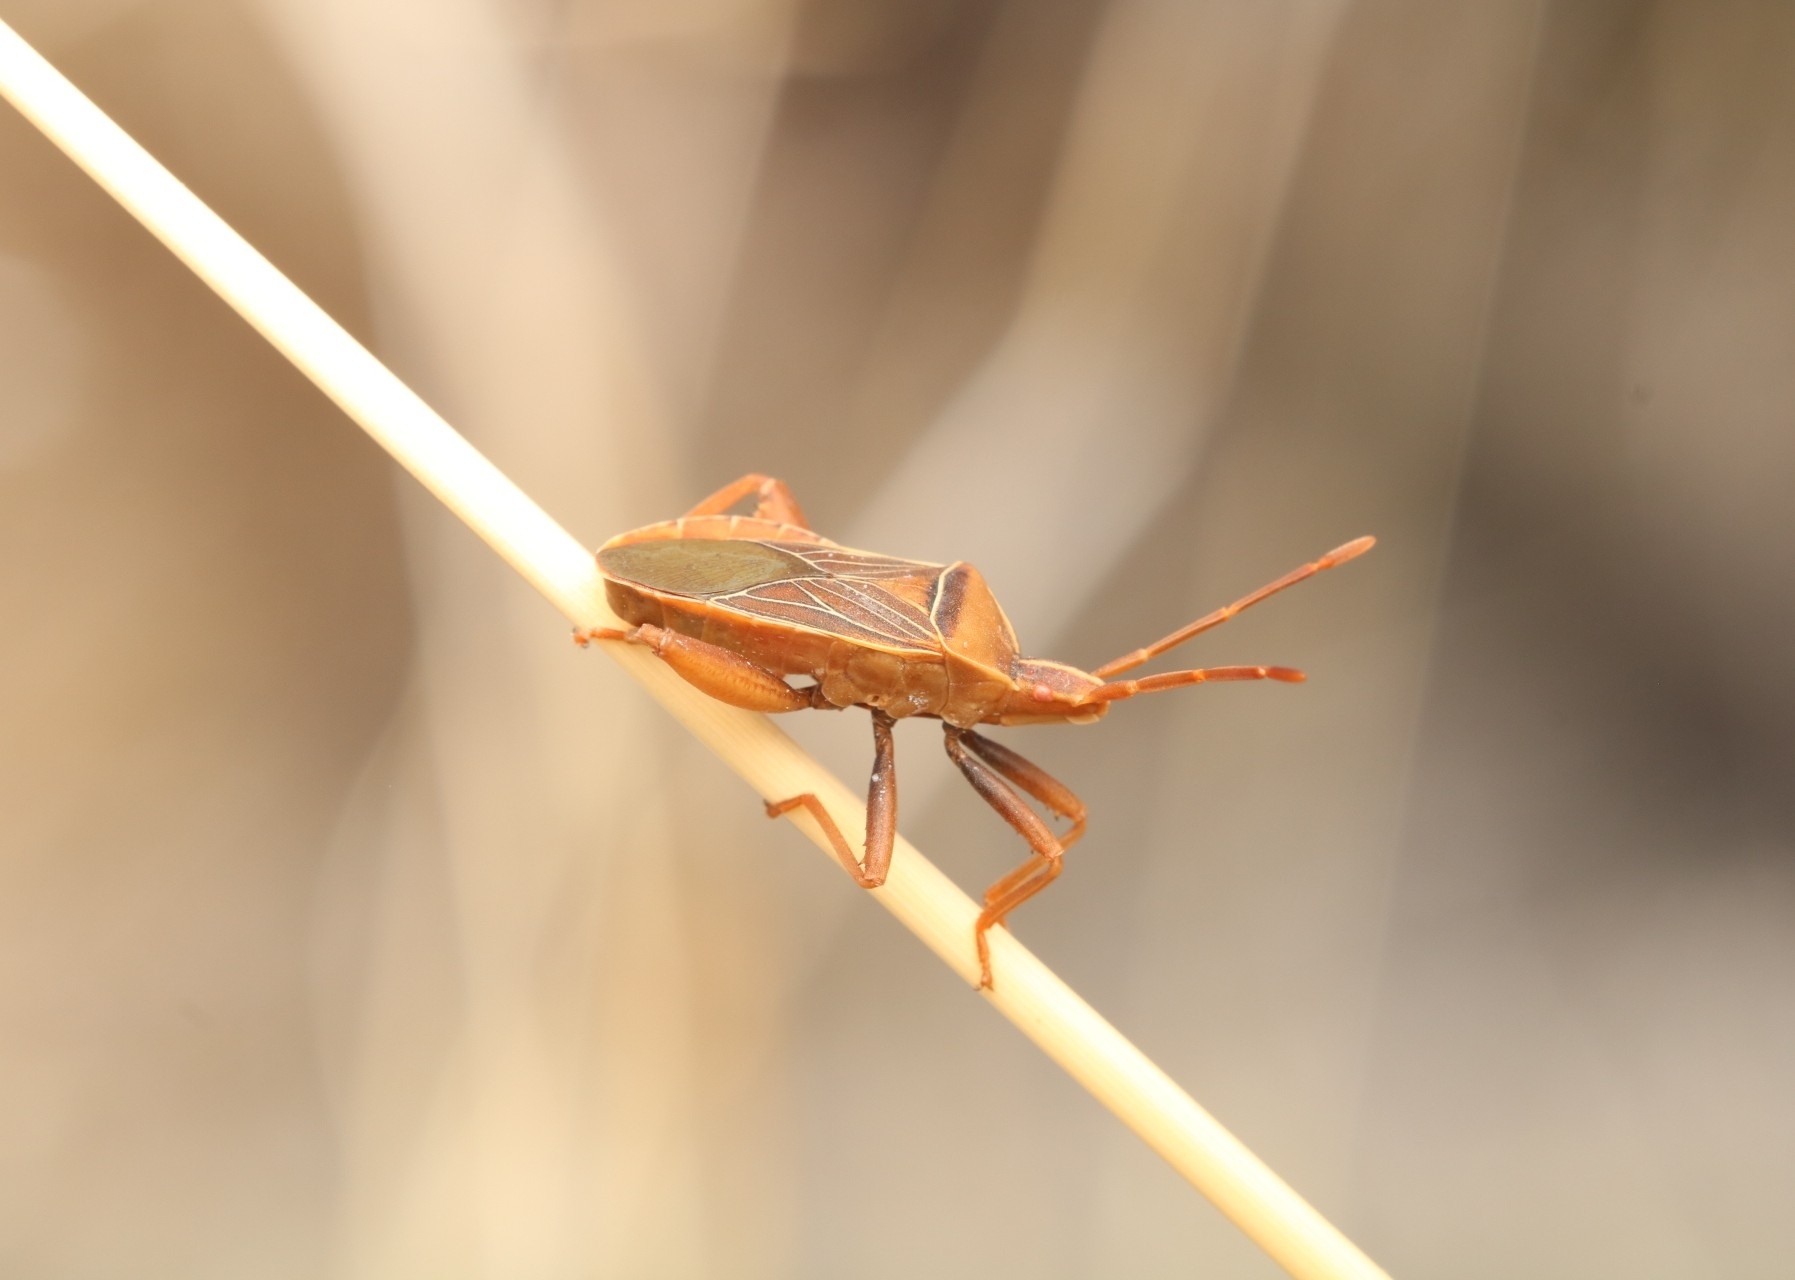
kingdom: Animalia
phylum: Arthropoda
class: Insecta
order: Hemiptera
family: Coreidae
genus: Chelinidea
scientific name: Chelinidea vittiger
